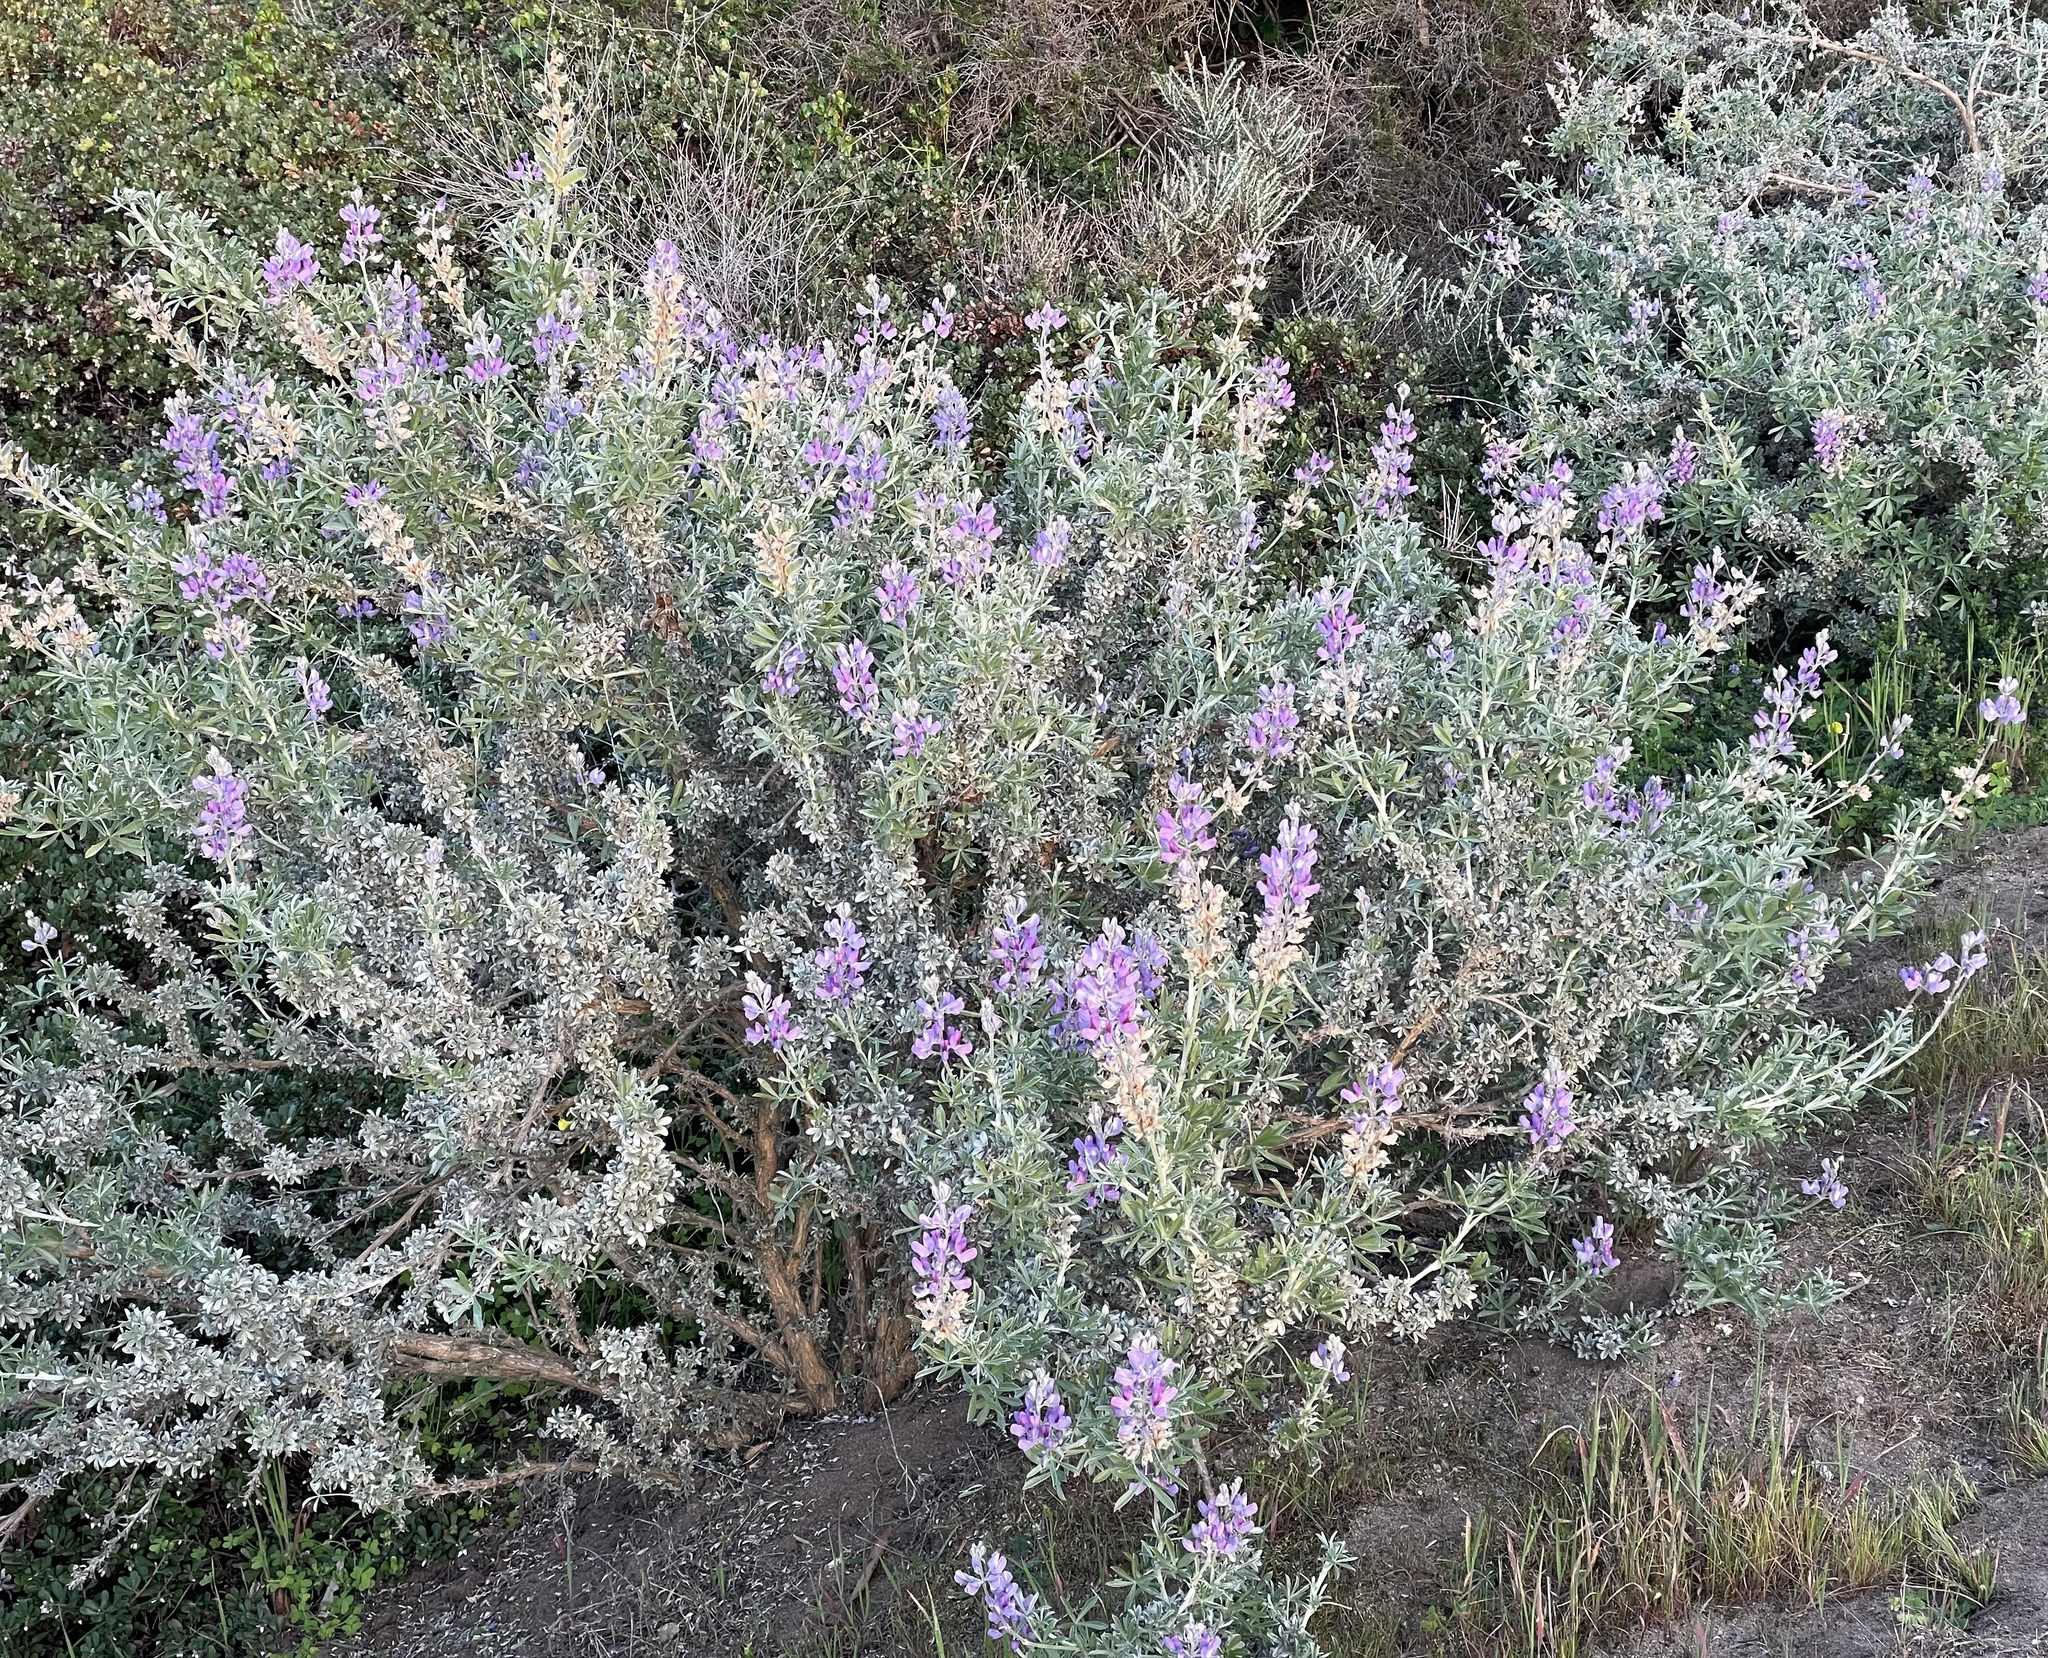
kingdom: Plantae
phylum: Tracheophyta
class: Magnoliopsida
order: Fabales
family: Fabaceae
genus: Lupinus
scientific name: Lupinus chamissonis
